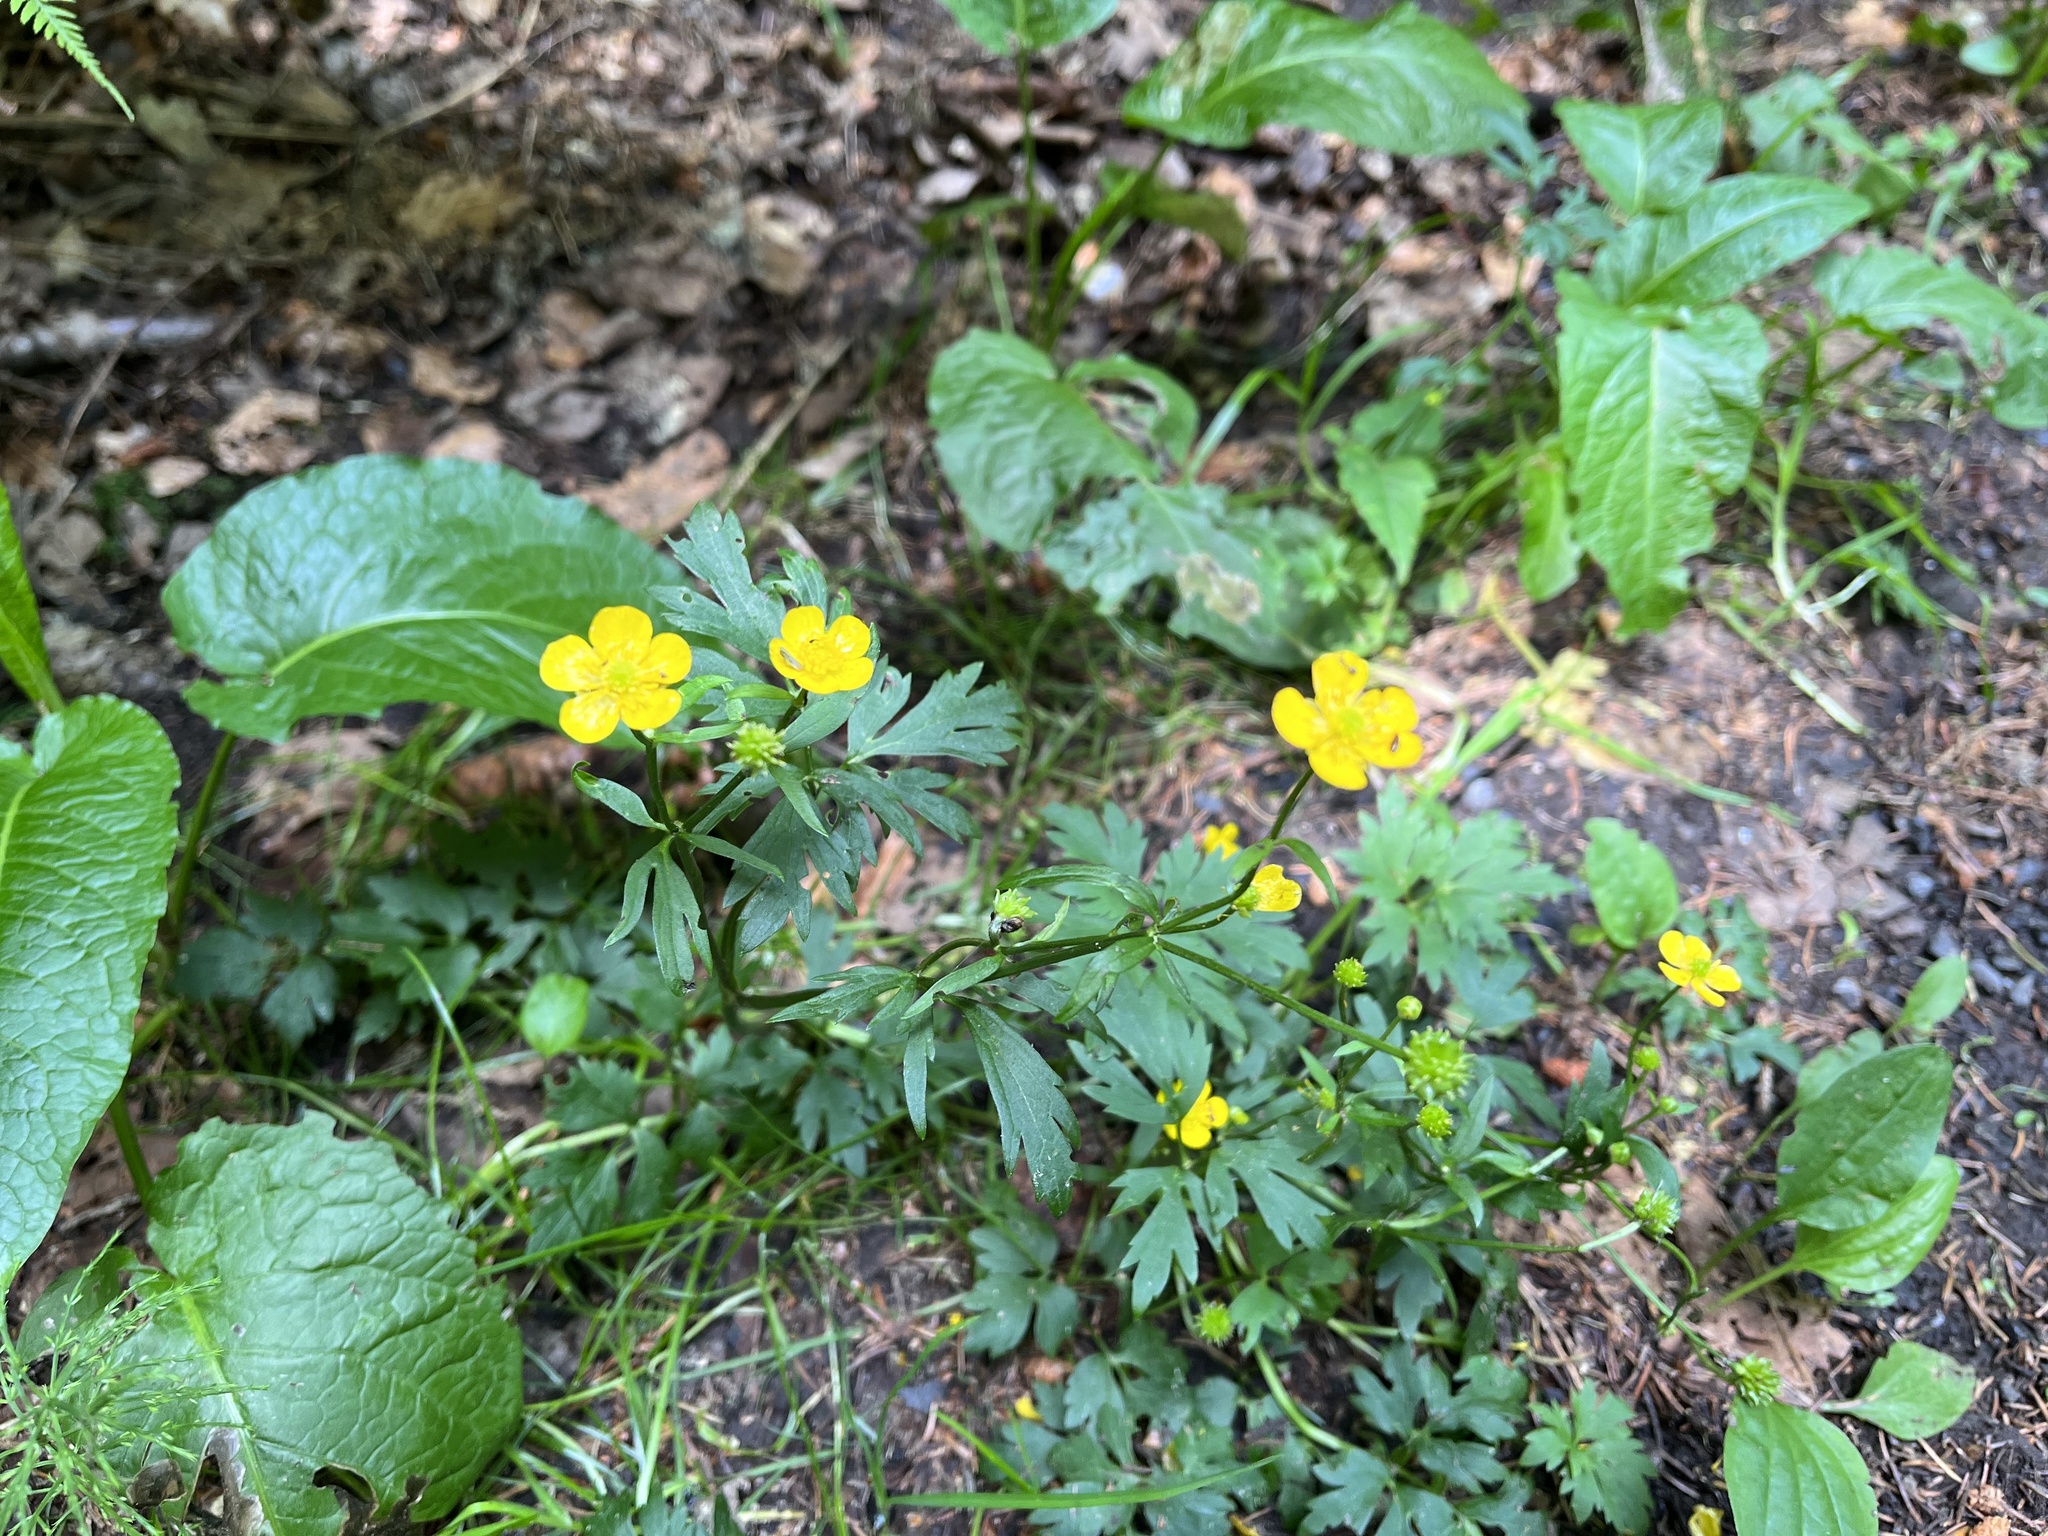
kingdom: Plantae
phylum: Tracheophyta
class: Magnoliopsida
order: Ranunculales
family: Ranunculaceae
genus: Ranunculus
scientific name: Ranunculus repens
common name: Creeping buttercup
